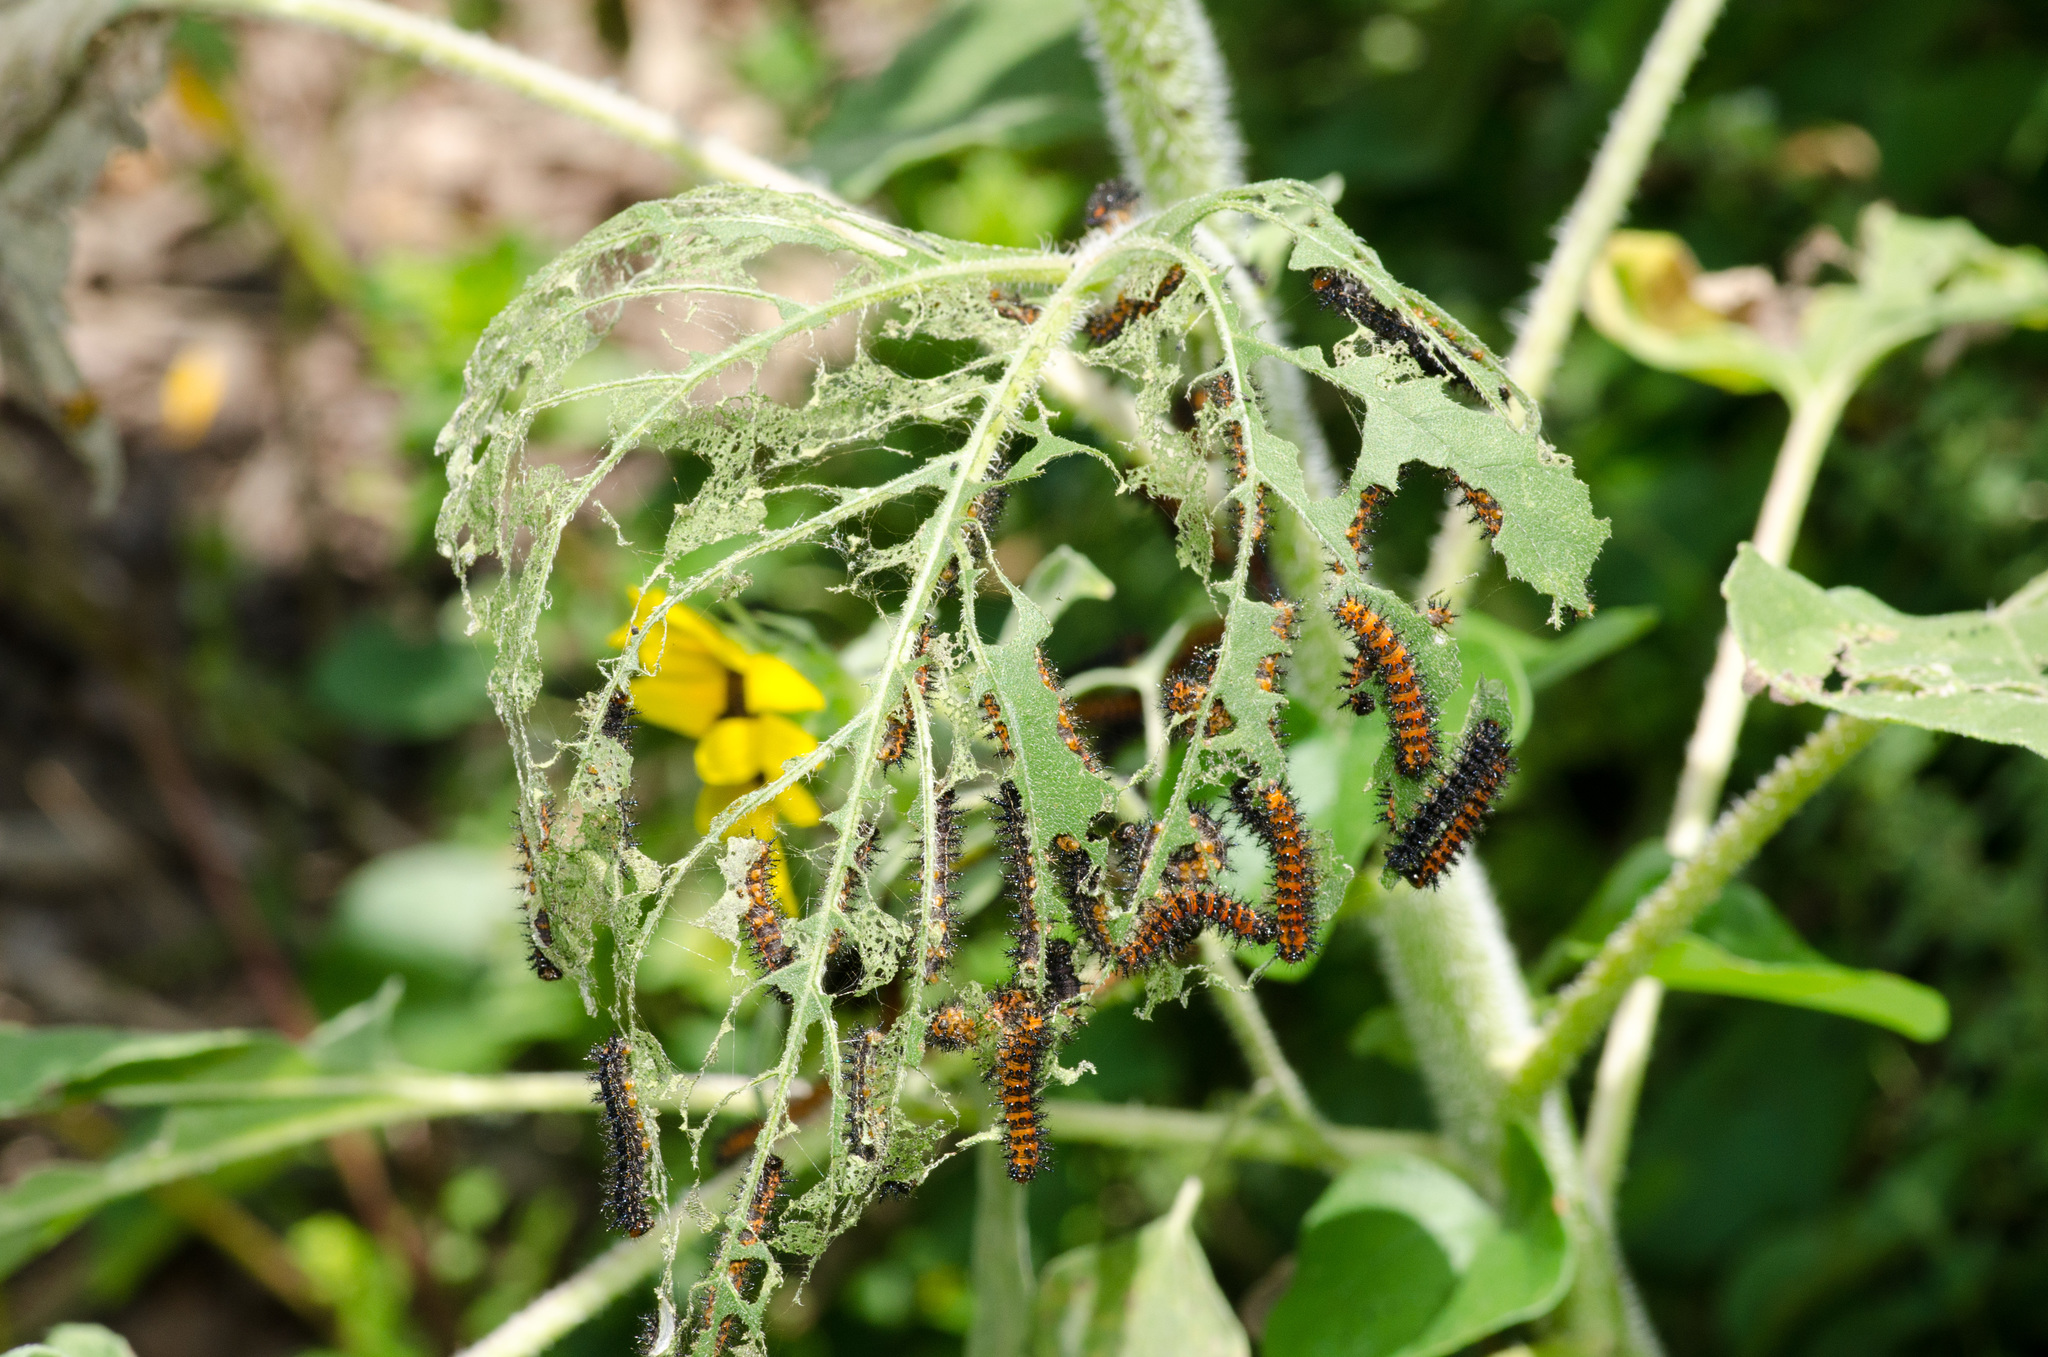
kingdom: Animalia
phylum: Arthropoda
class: Insecta
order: Lepidoptera
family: Nymphalidae
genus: Chlosyne
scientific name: Chlosyne lacinia
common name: Bordered patch
